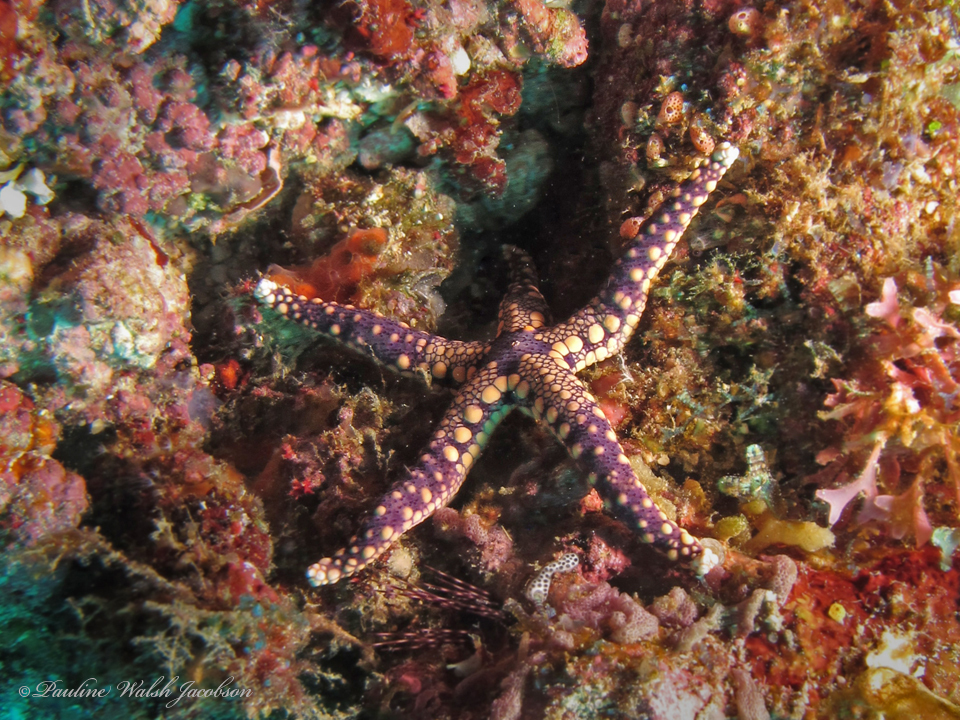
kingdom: Animalia
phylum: Echinodermata
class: Asteroidea
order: Valvatida
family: Goniasteridae
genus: Fromia
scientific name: Fromia heffernani
